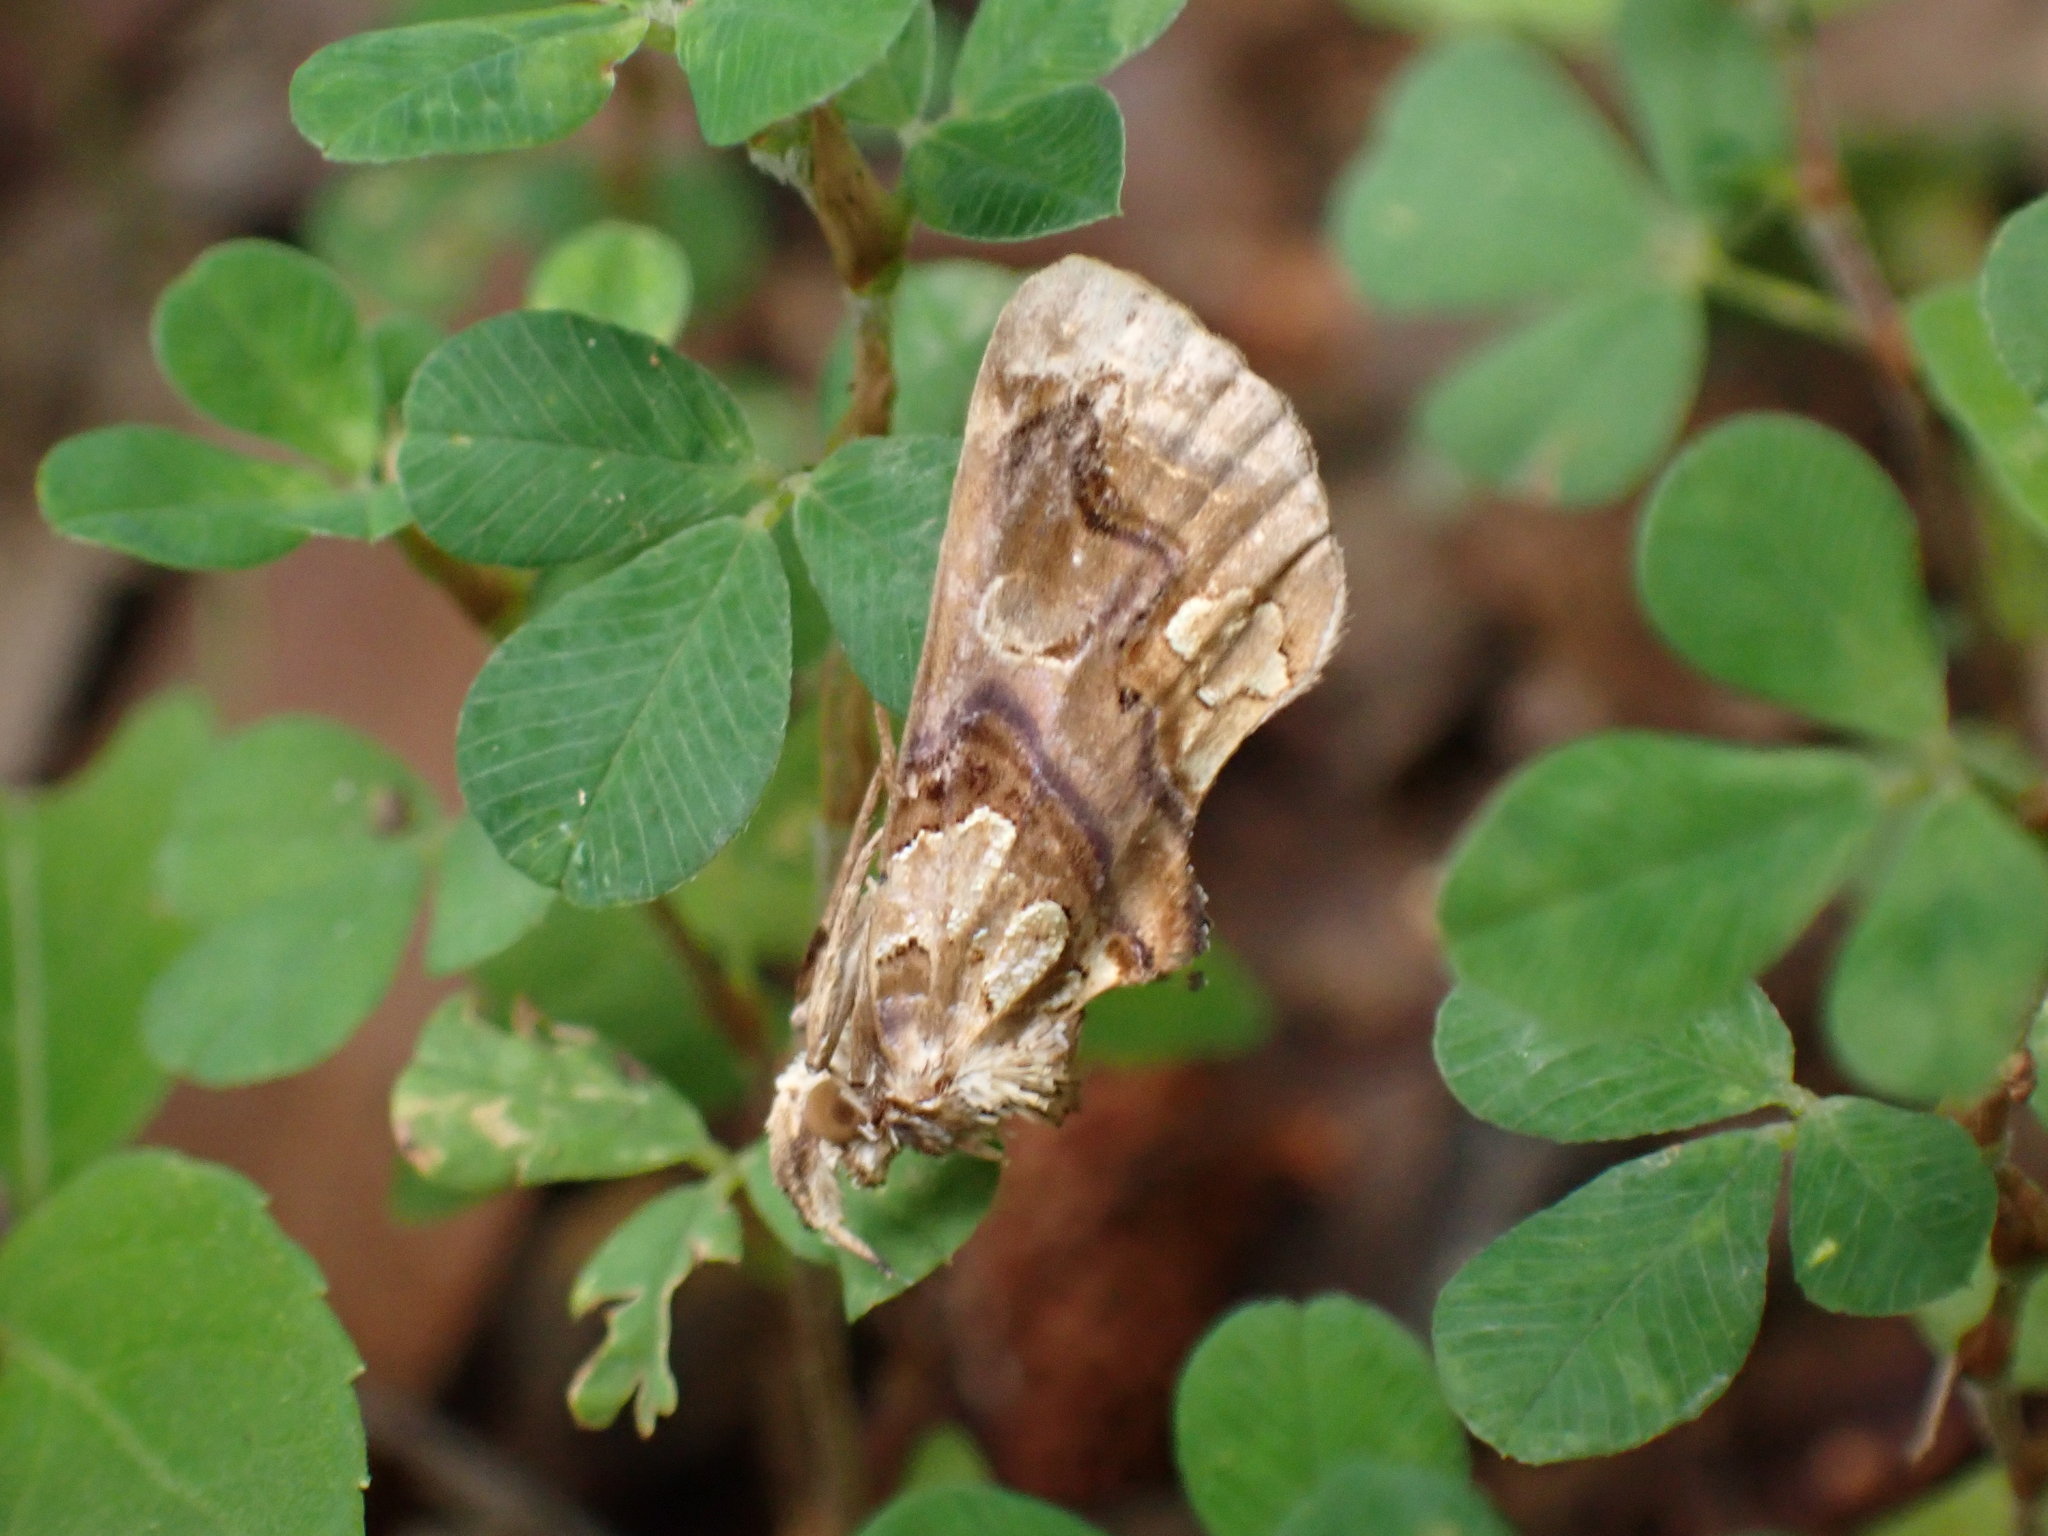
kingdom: Animalia
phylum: Arthropoda
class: Insecta
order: Lepidoptera
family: Erebidae
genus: Plusiodonta
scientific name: Plusiodonta compressipalpis
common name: Moonseed moth
